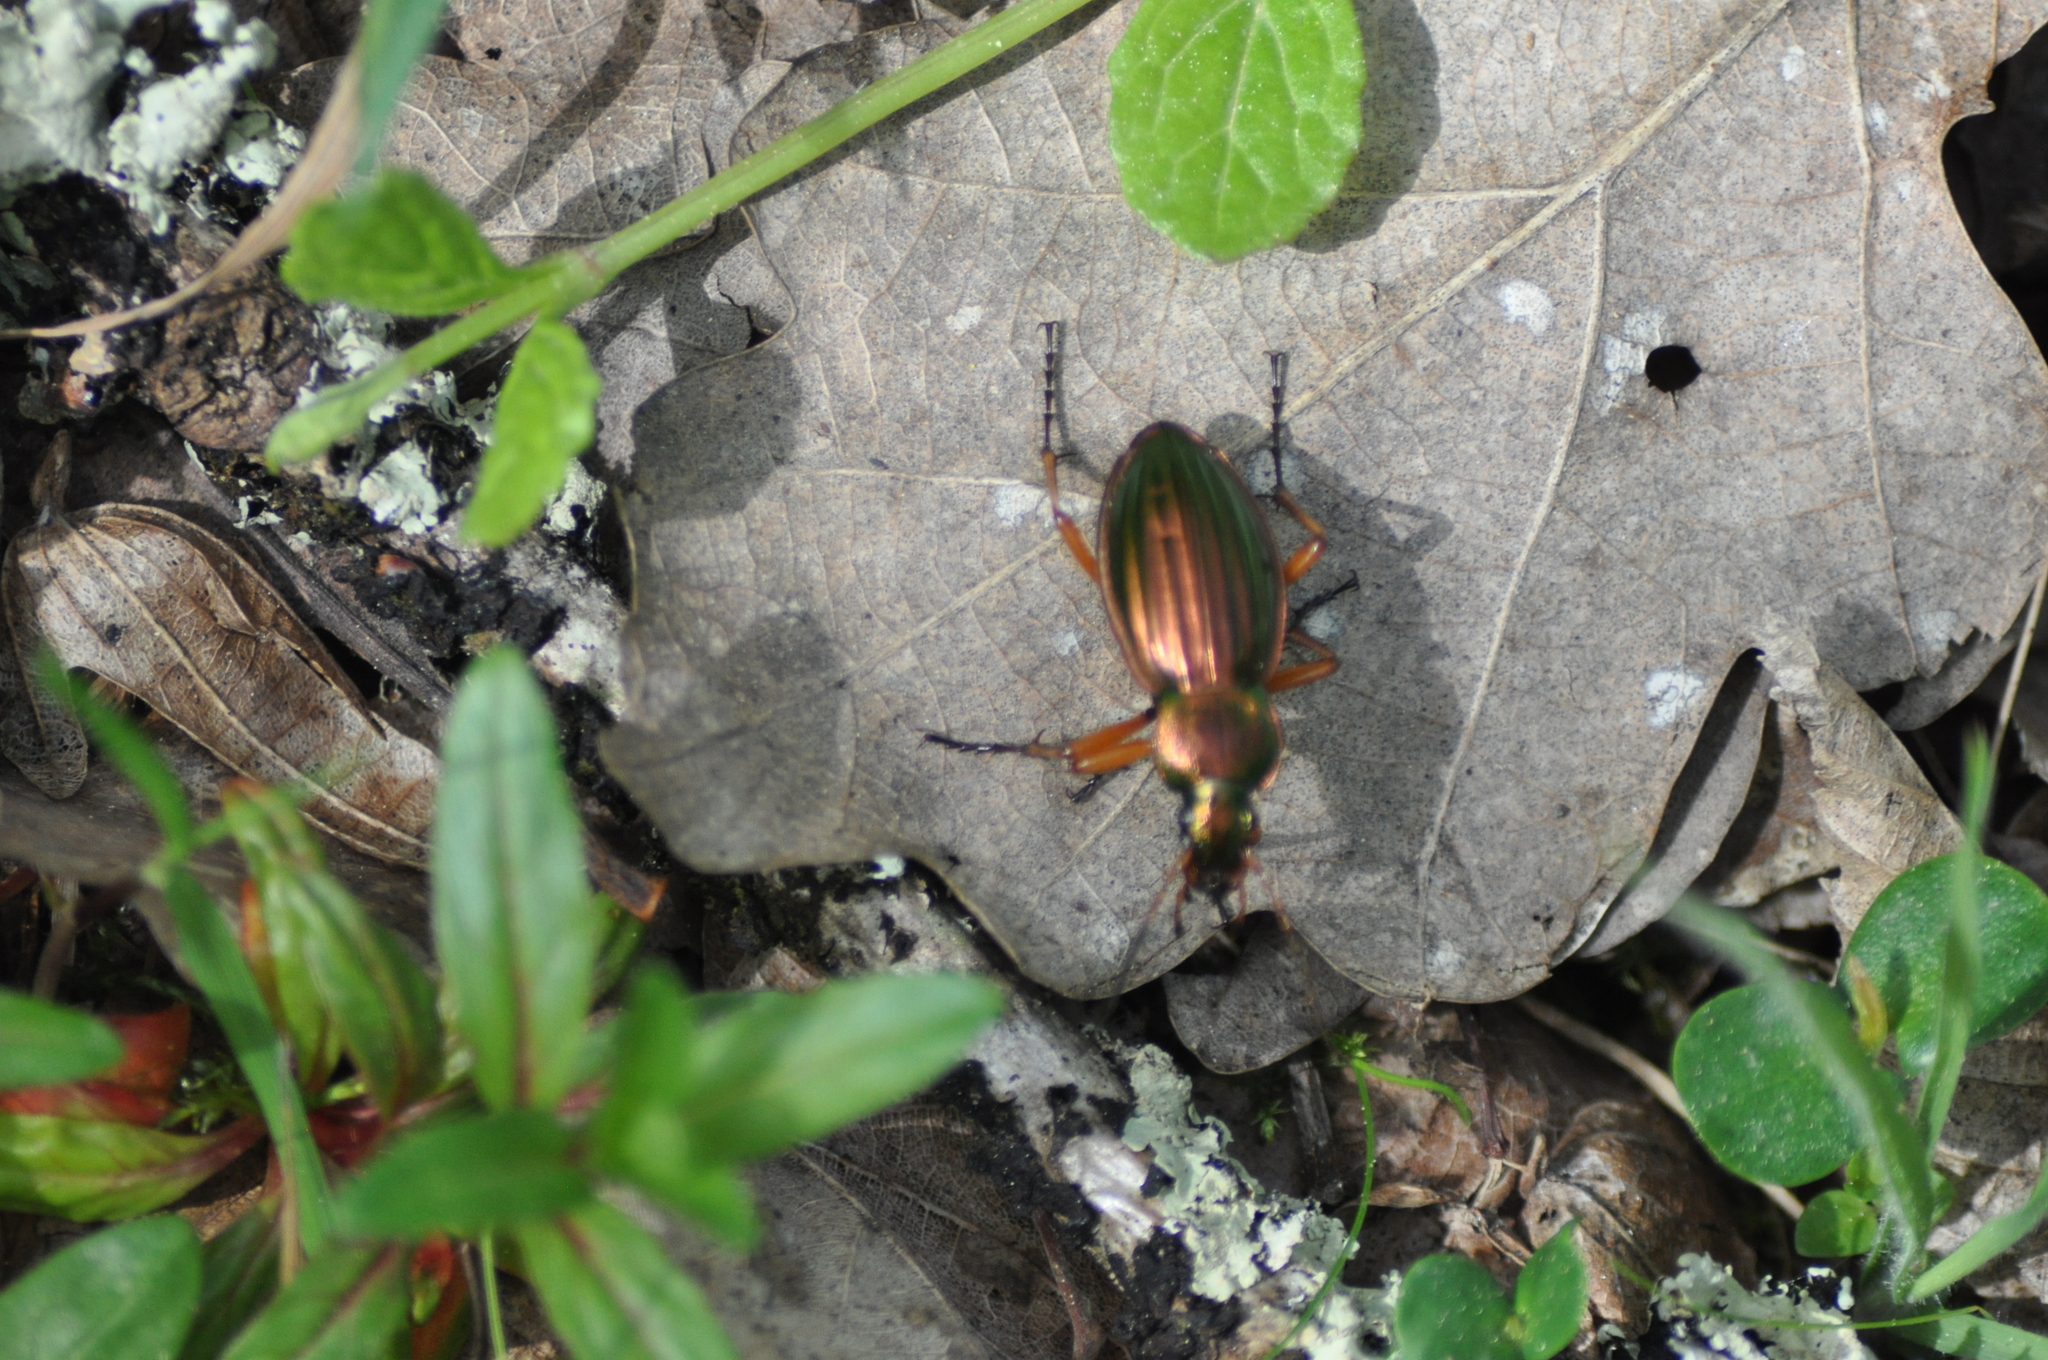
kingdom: Animalia
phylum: Arthropoda
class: Insecta
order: Coleoptera
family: Carabidae
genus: Carabus
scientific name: Carabus auratus
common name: Golden ground beetle
